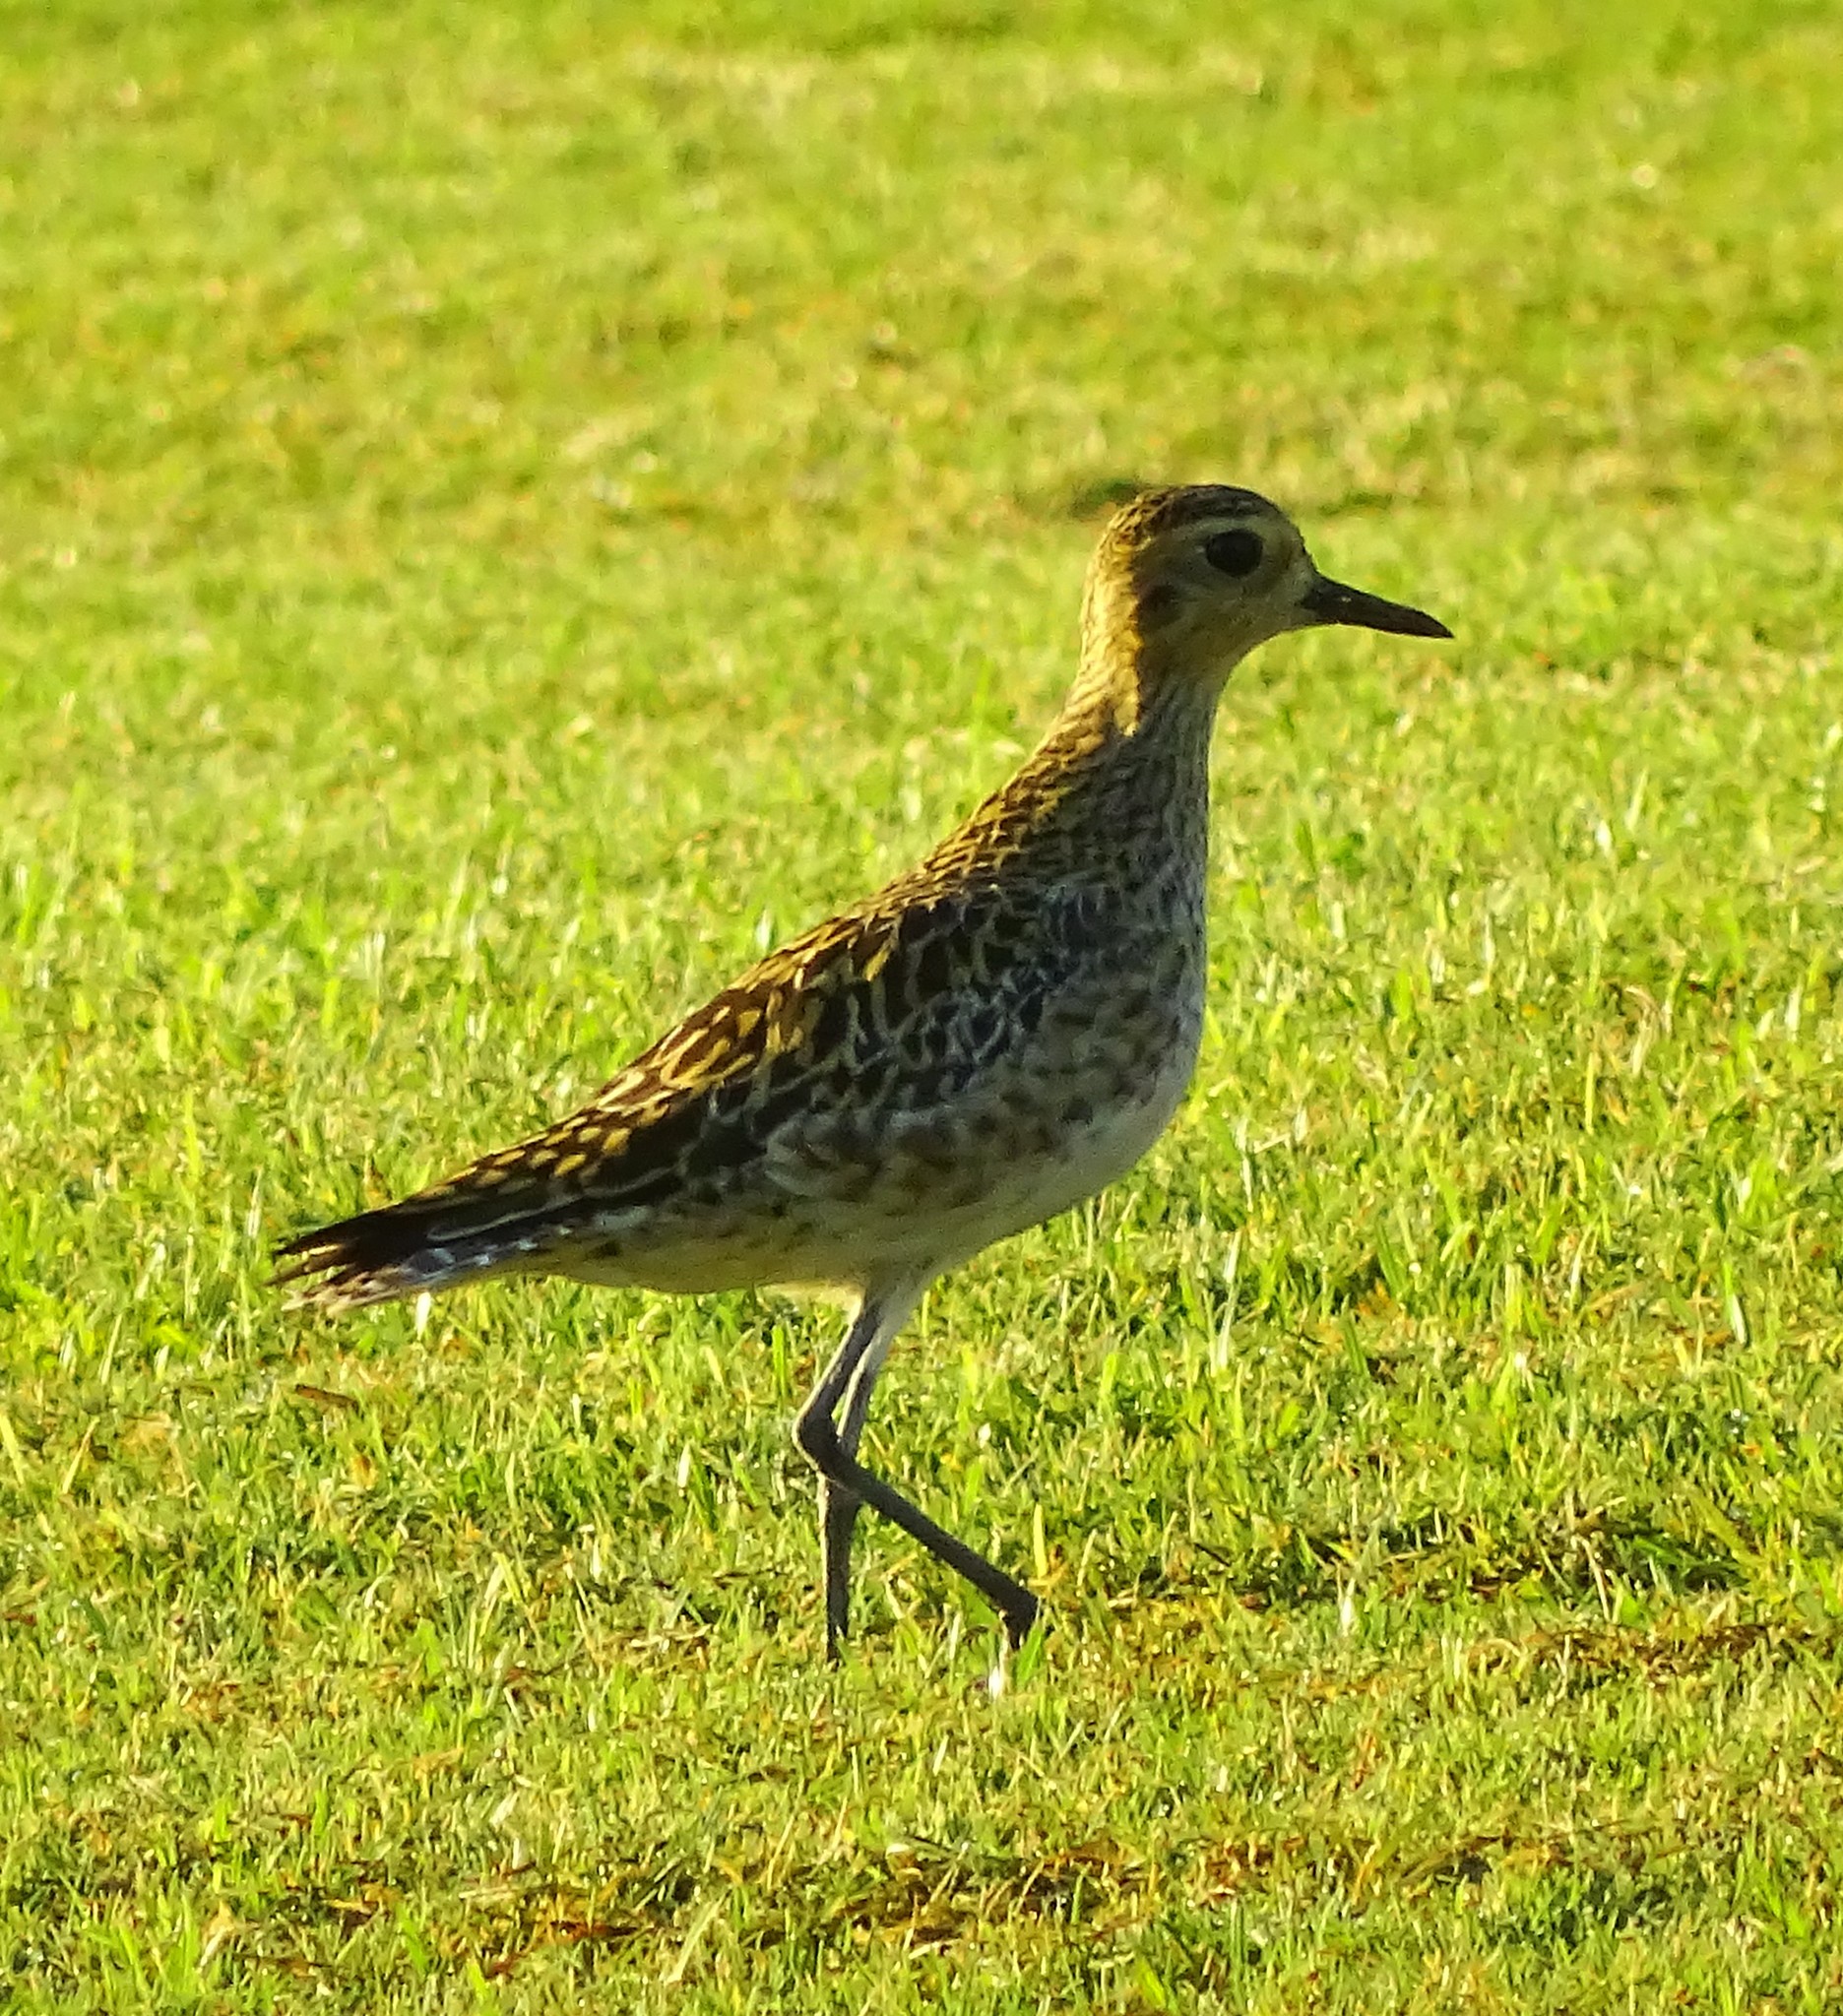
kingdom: Animalia
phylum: Chordata
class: Aves
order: Charadriiformes
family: Charadriidae
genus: Pluvialis
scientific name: Pluvialis fulva
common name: Pacific golden plover
